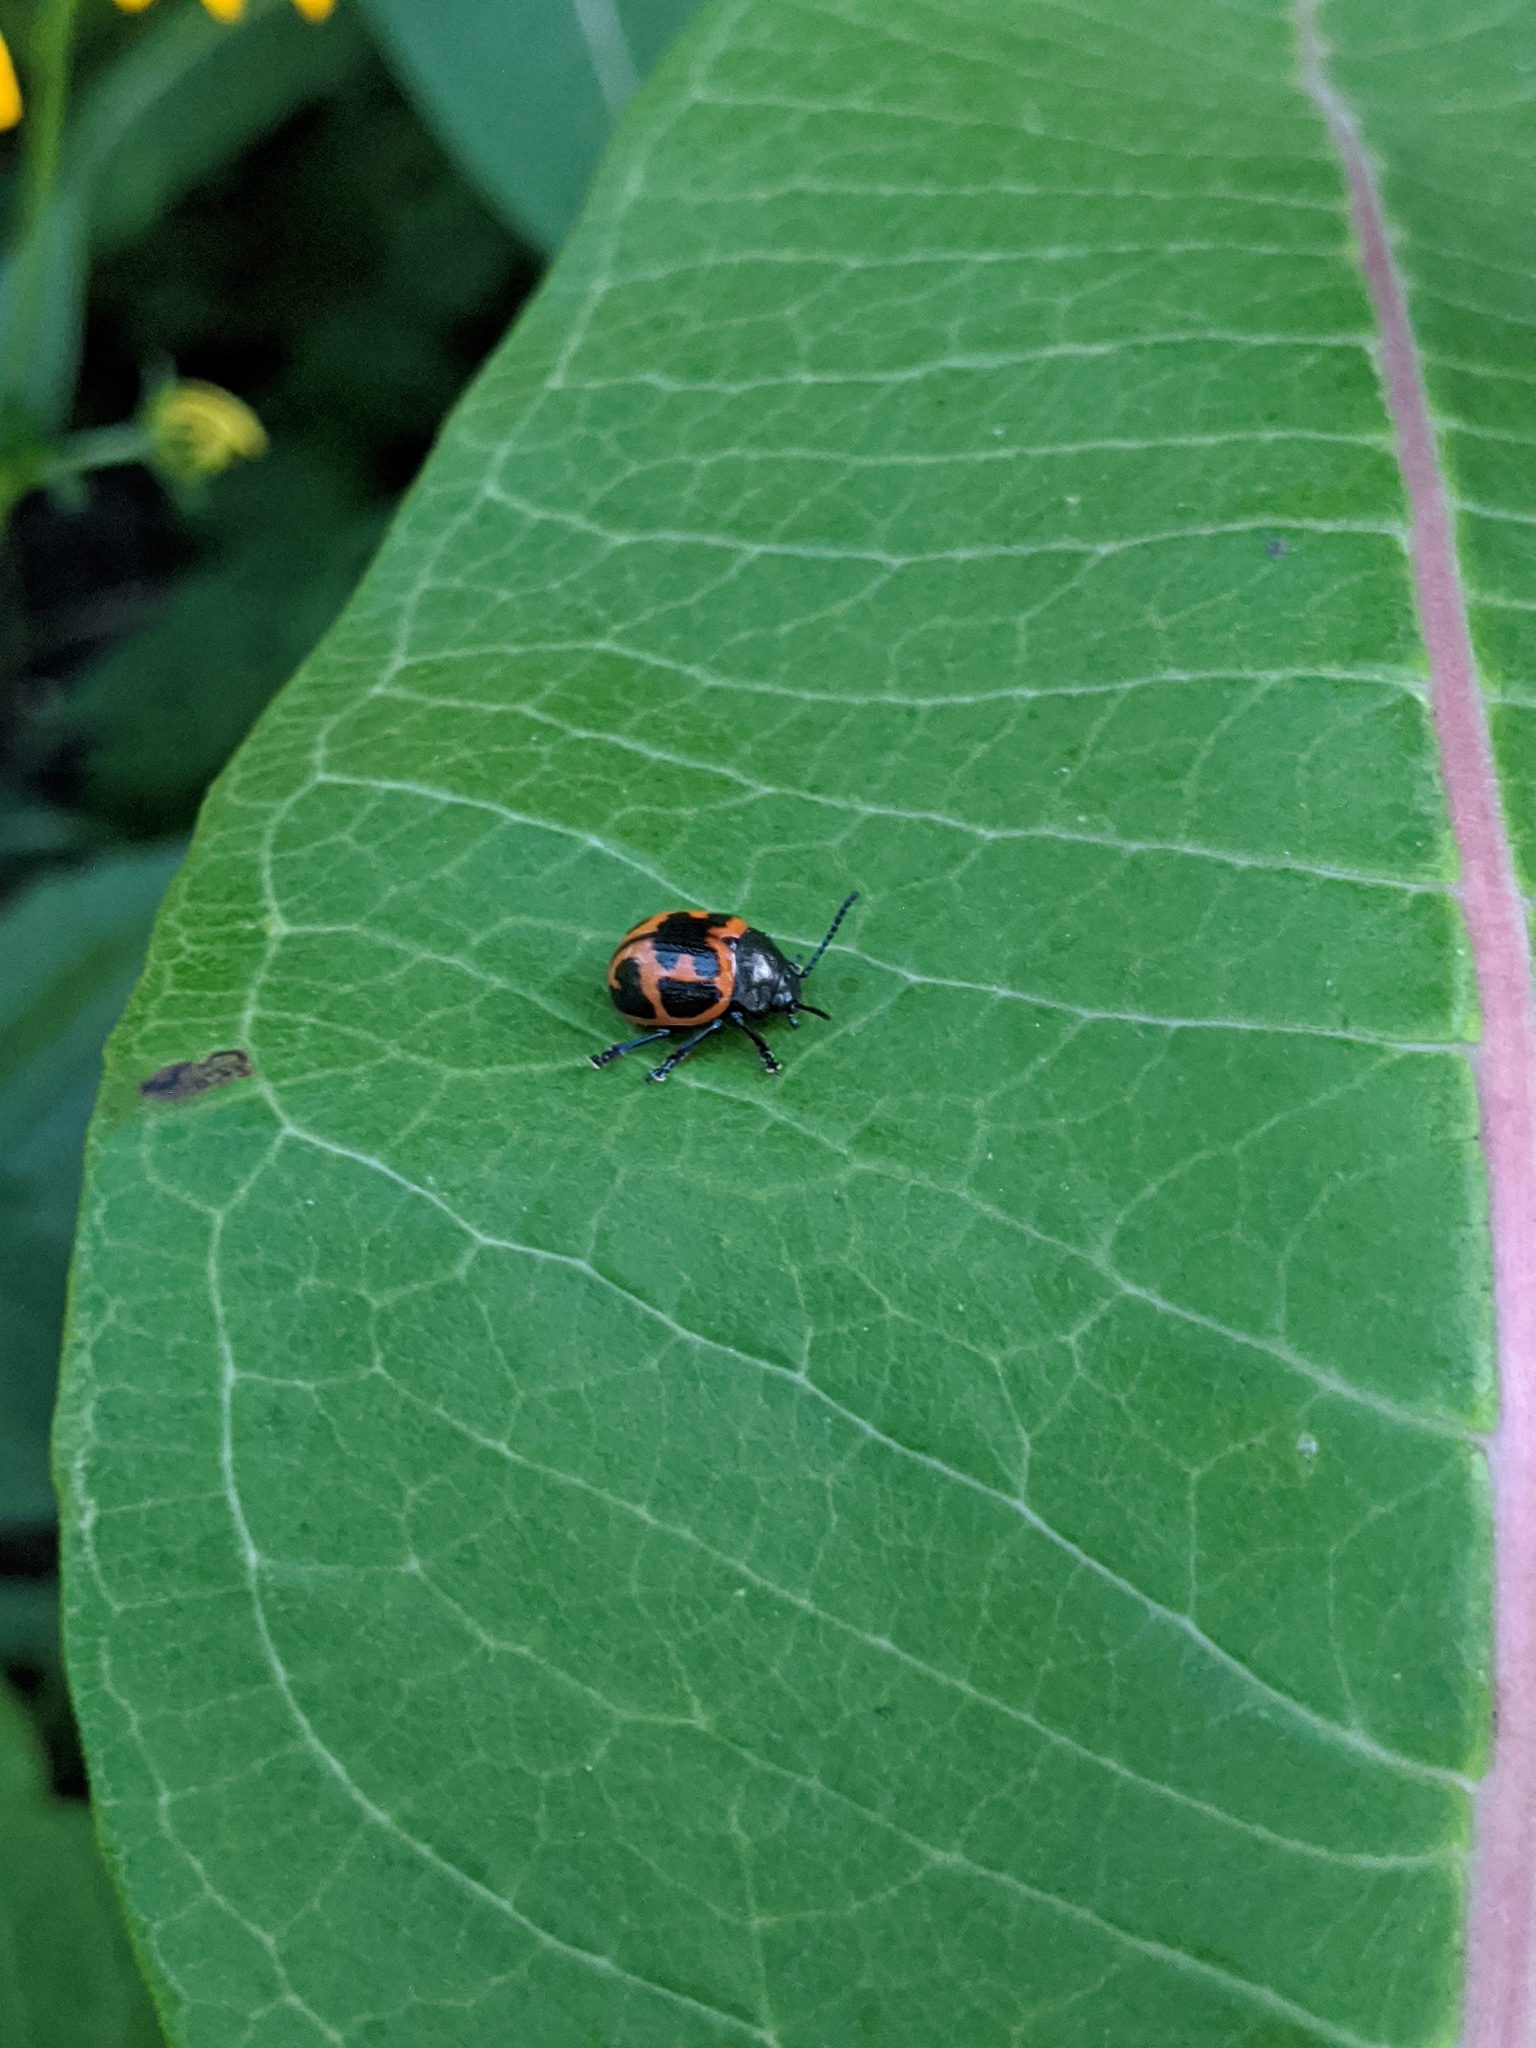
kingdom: Animalia
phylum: Arthropoda
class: Insecta
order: Coleoptera
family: Chrysomelidae
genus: Labidomera
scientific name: Labidomera clivicollis
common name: Swamp milkweed leaf beetle
